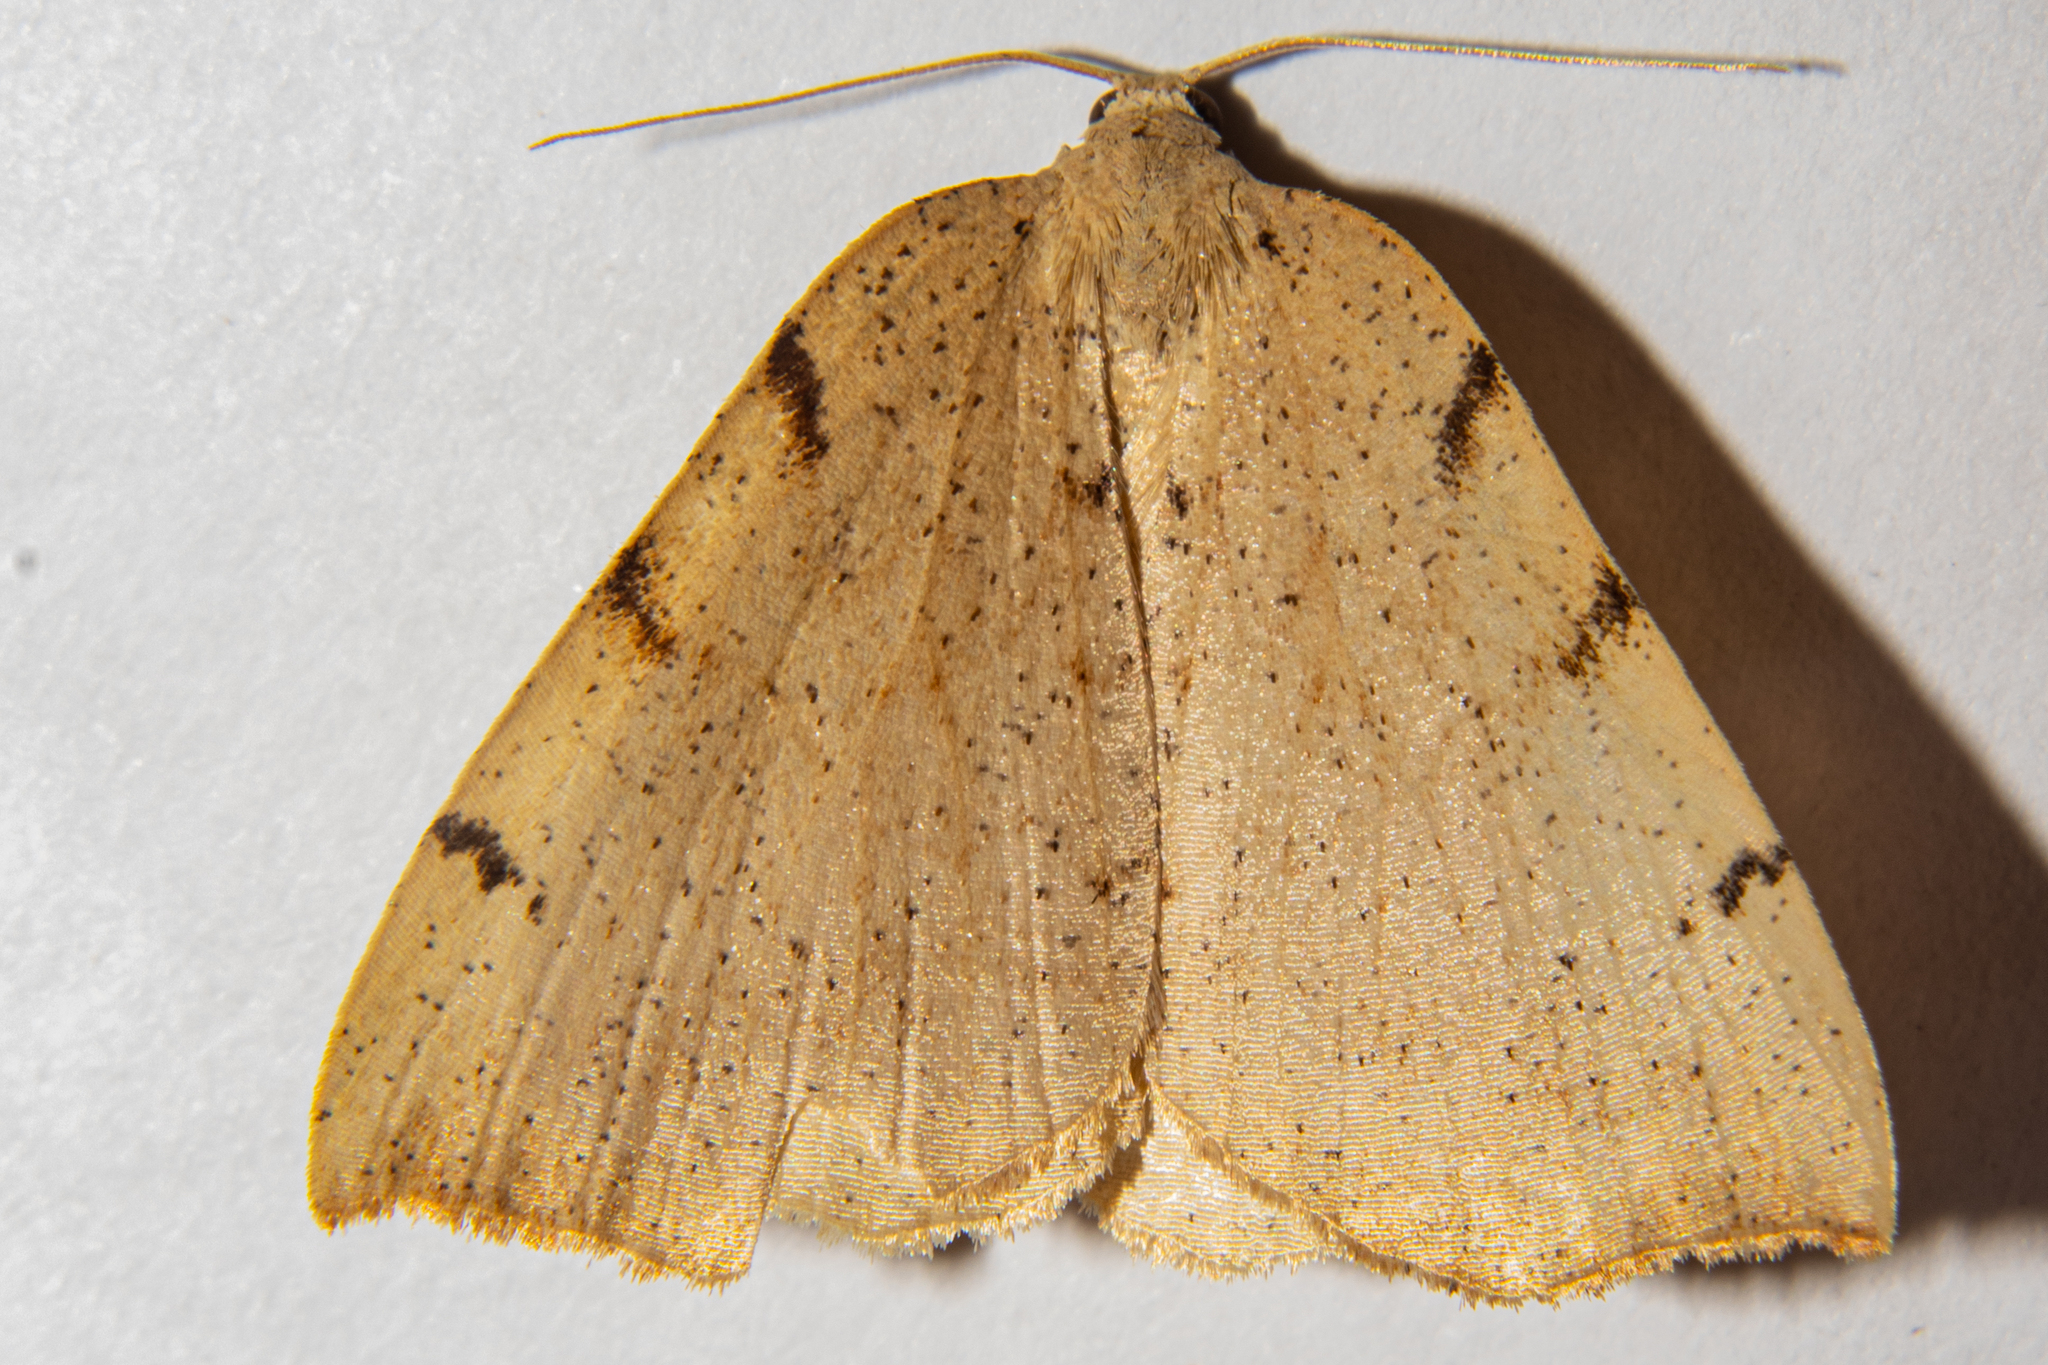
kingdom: Animalia
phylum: Arthropoda
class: Insecta
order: Lepidoptera
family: Geometridae
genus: Sestra
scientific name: Sestra humeraria
